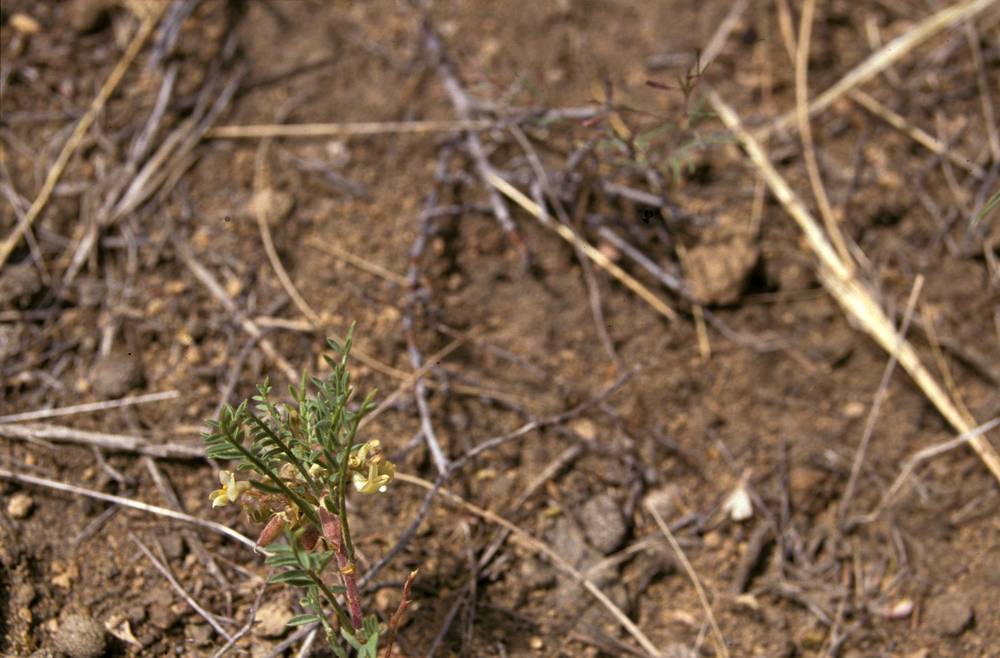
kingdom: Plantae
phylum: Tracheophyta
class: Magnoliopsida
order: Fabales
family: Fabaceae
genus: Astragalus
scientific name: Astragalus peckii
